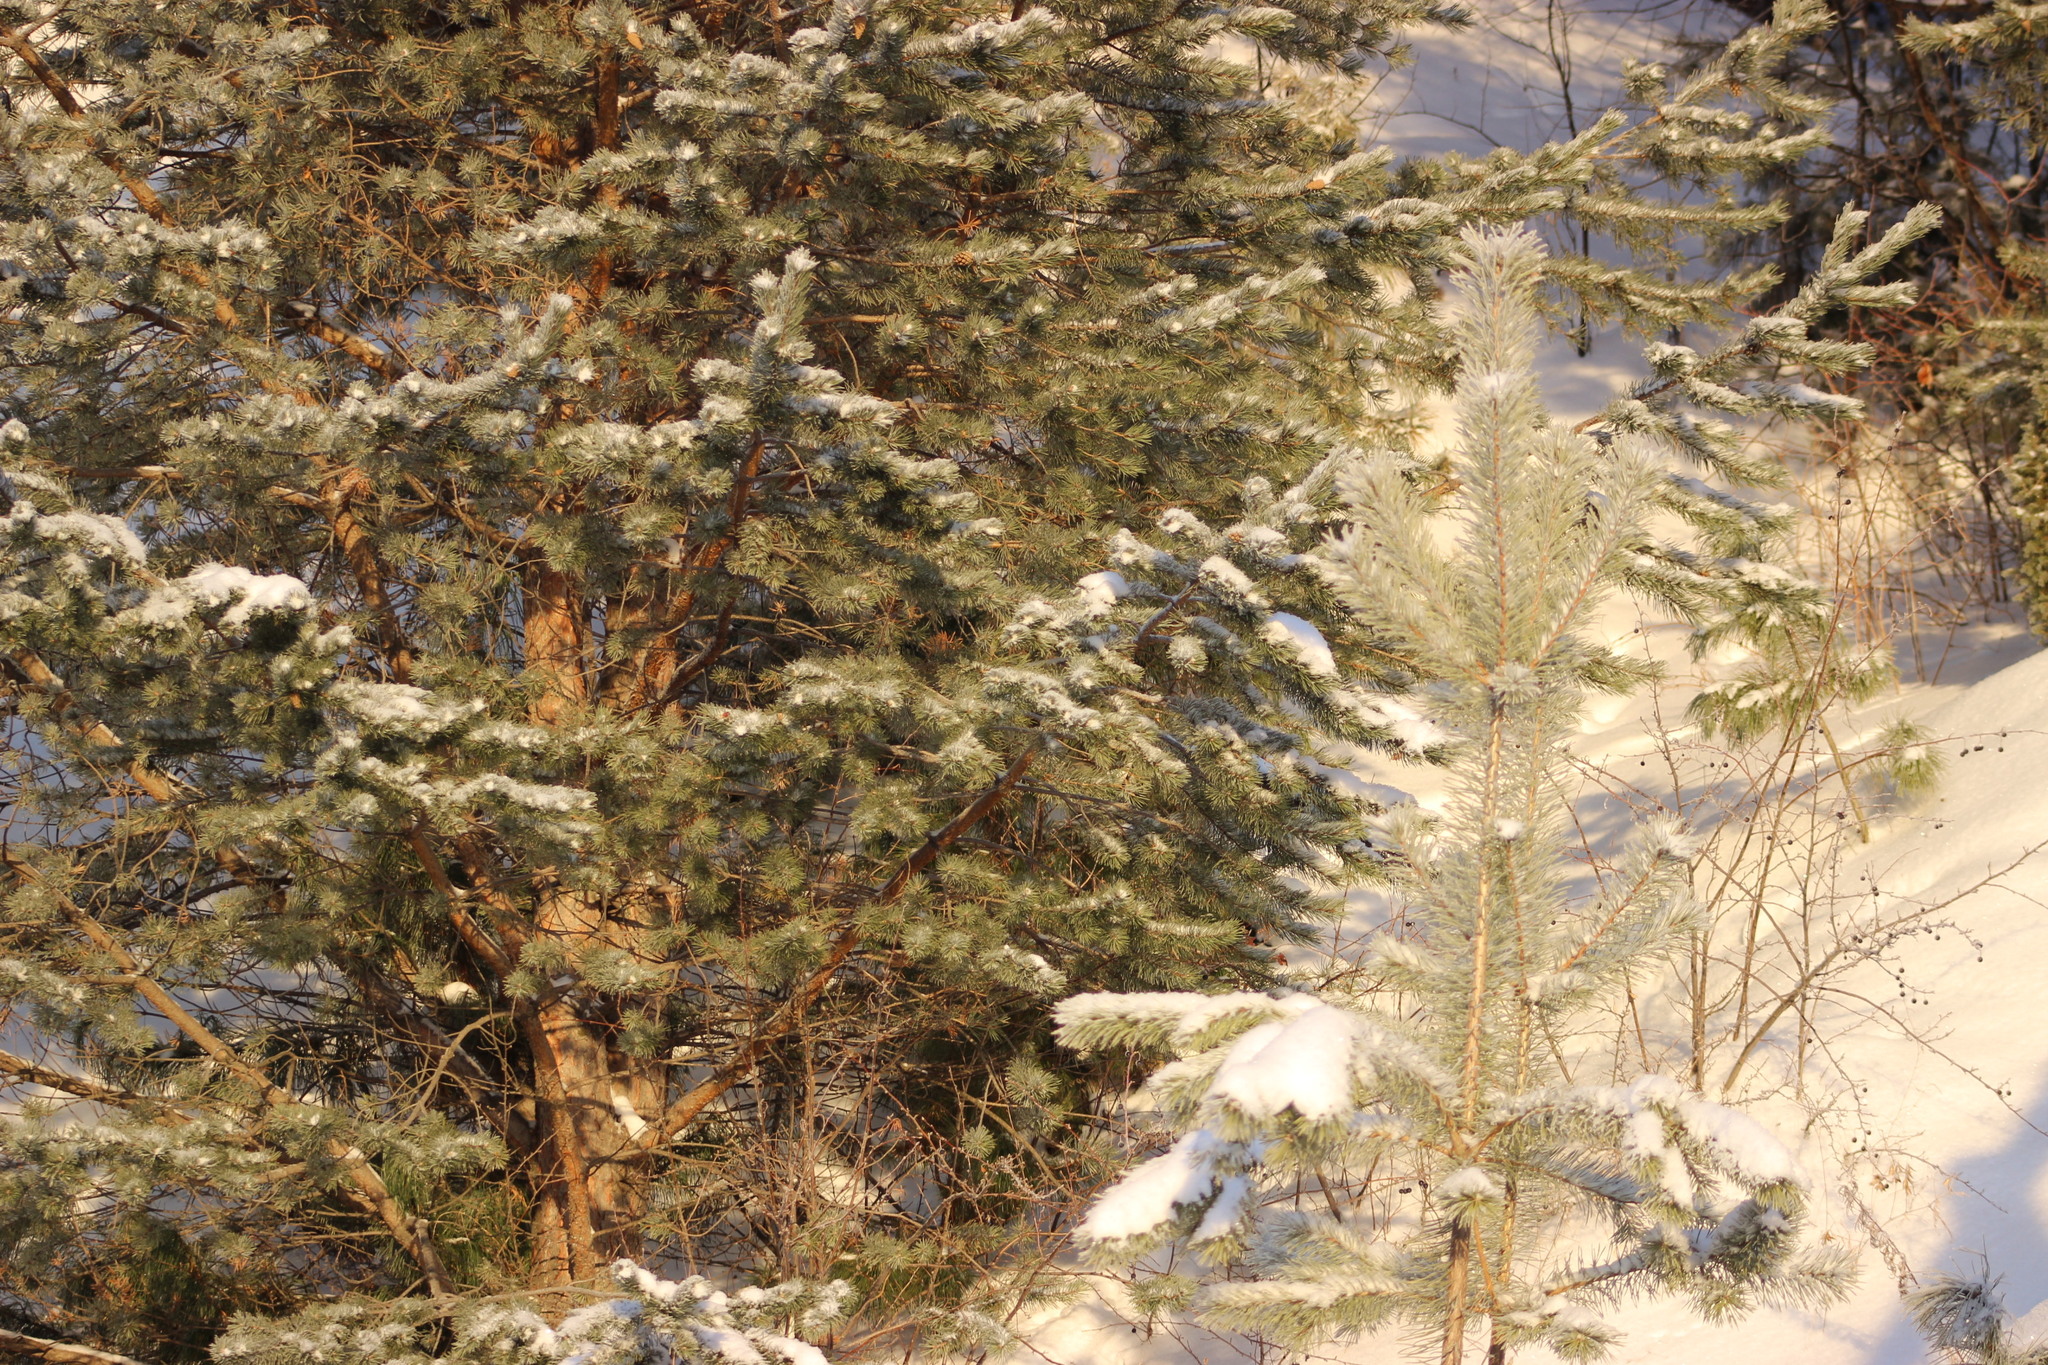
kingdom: Plantae
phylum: Tracheophyta
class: Pinopsida
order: Pinales
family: Pinaceae
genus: Pinus
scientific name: Pinus sylvestris
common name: Scots pine
